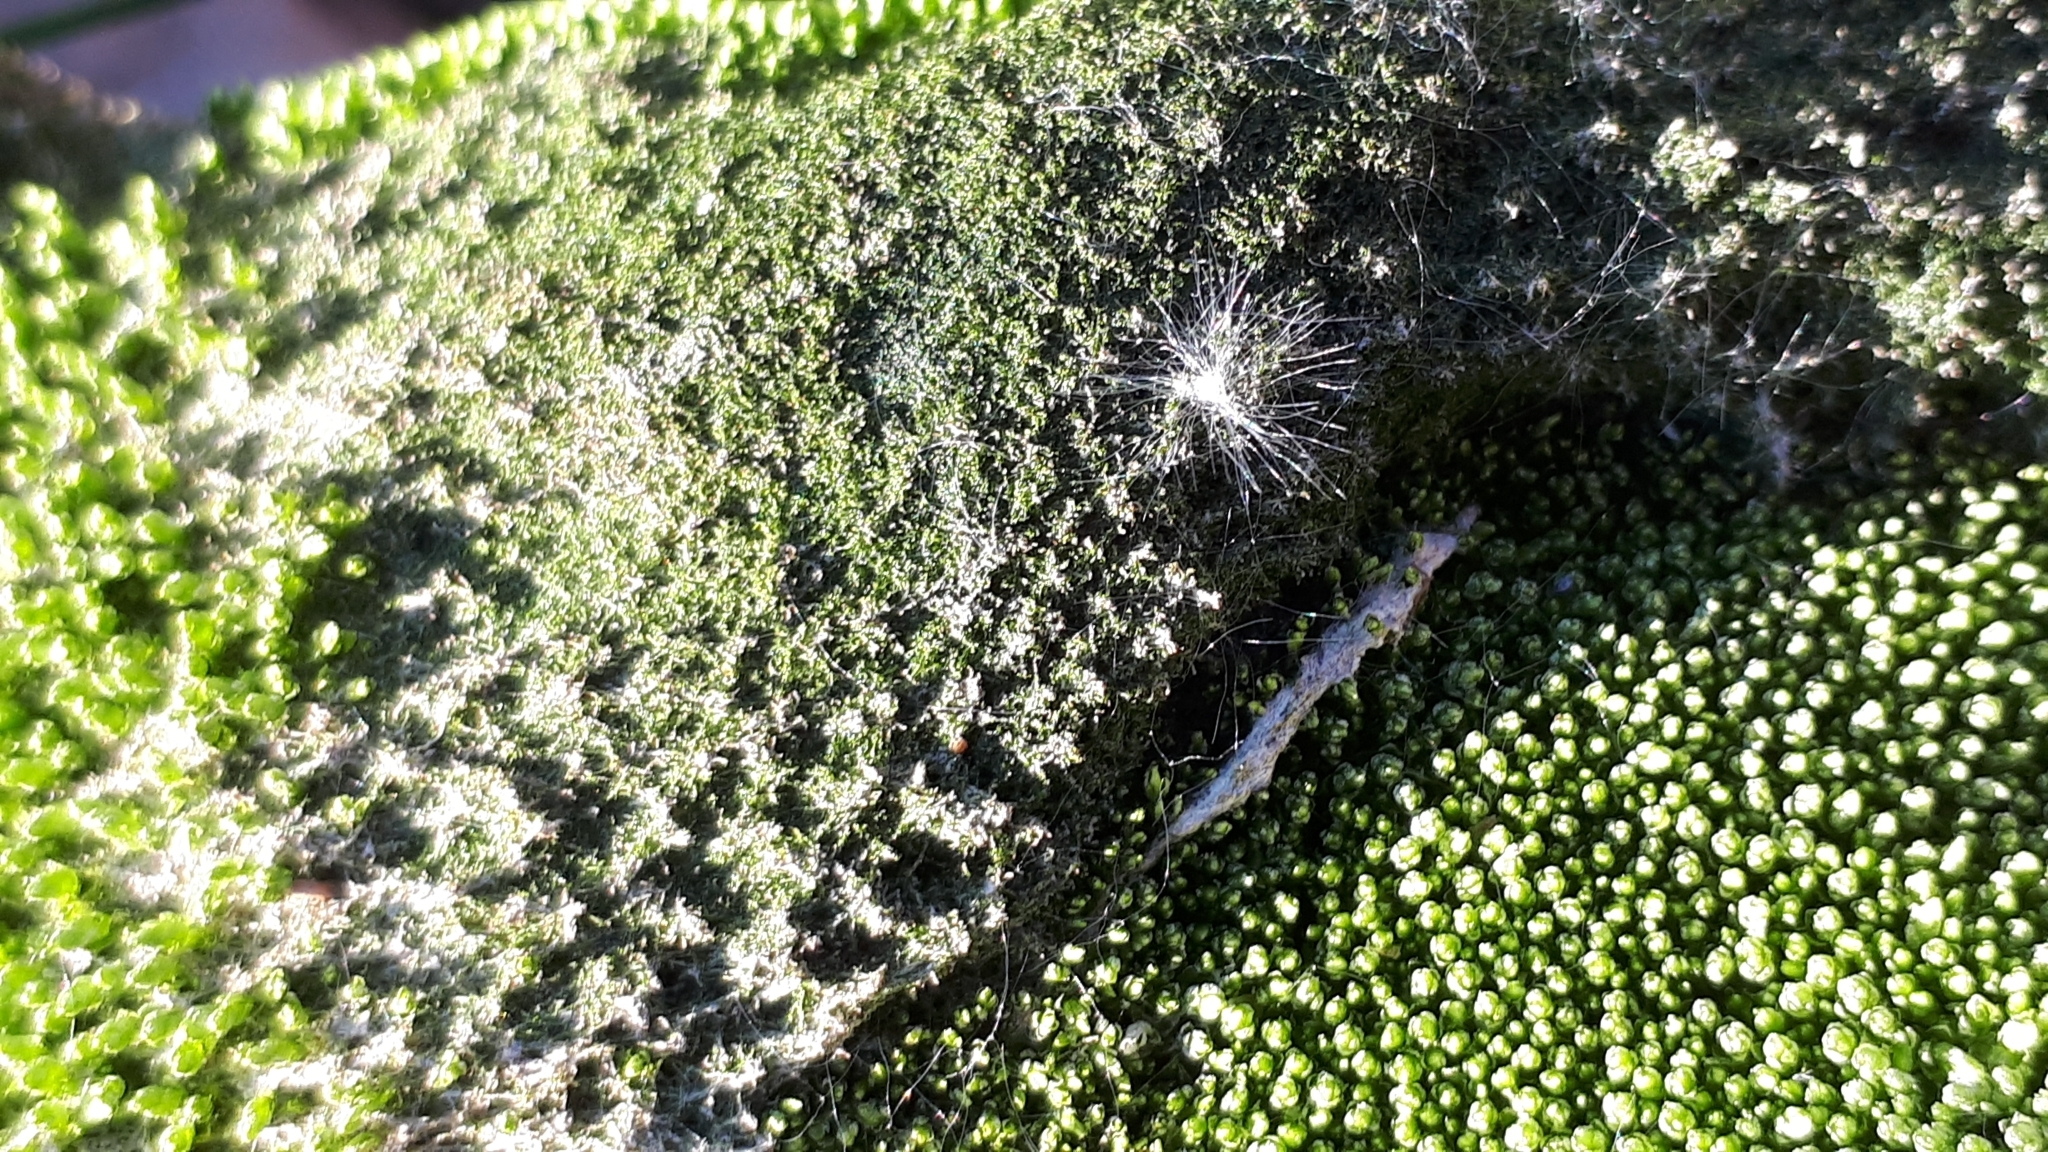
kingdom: Plantae
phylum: Bryophyta
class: Bryopsida
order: Bryales
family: Bryaceae
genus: Bryum
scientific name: Bryum argenteum
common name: Silver-moss
